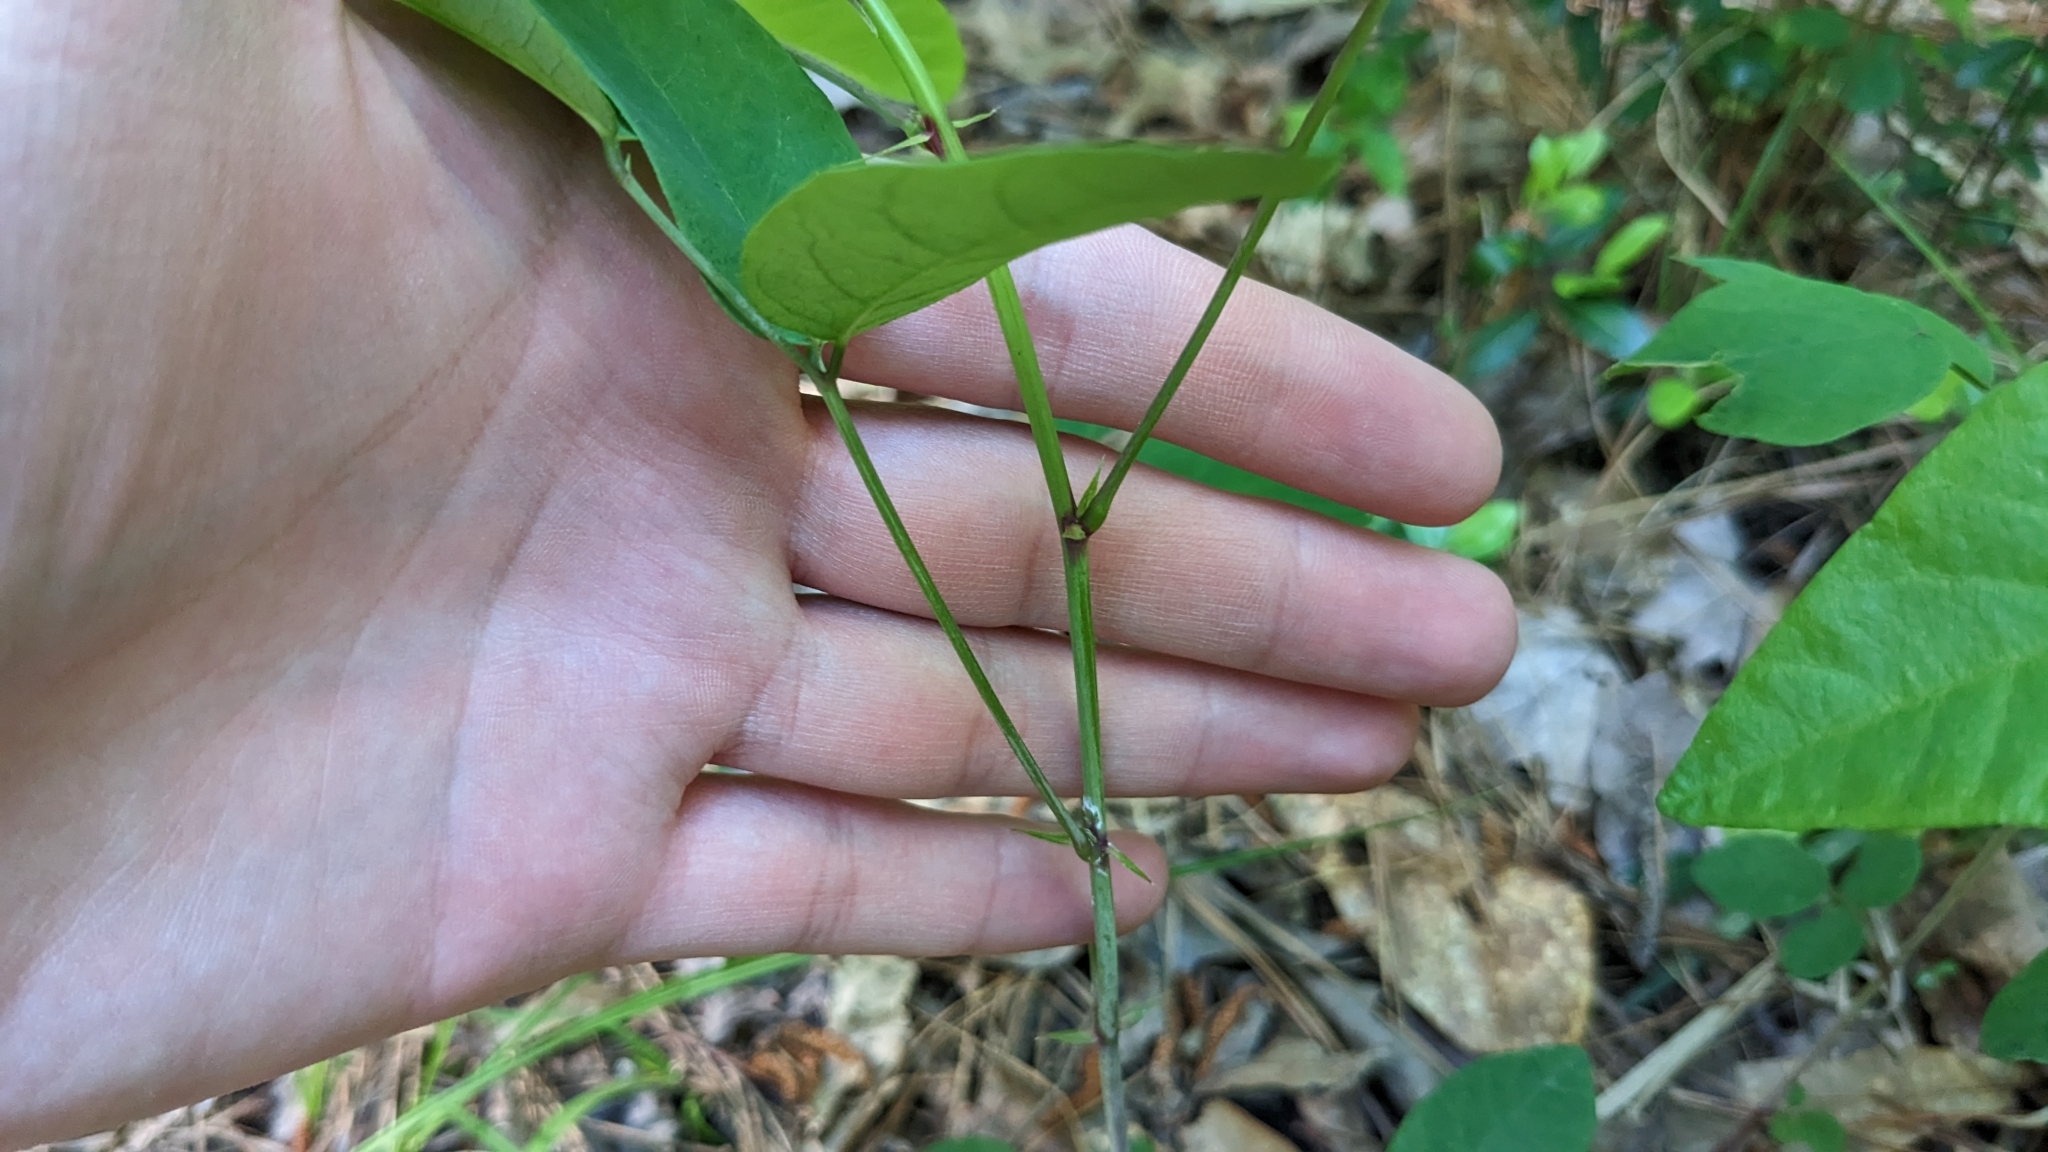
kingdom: Plantae
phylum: Tracheophyta
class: Magnoliopsida
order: Fabales
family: Fabaceae
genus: Desmodium
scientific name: Desmodium laevigatum
